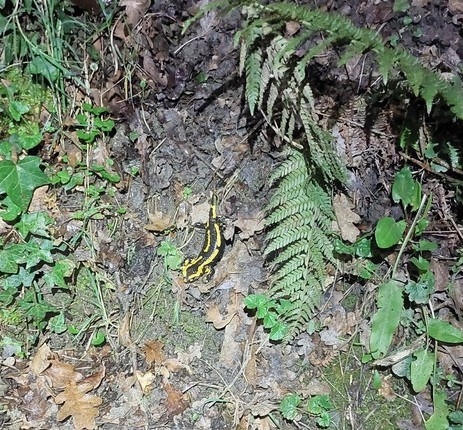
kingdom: Animalia
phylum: Chordata
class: Amphibia
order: Caudata
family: Salamandridae
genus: Salamandra
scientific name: Salamandra salamandra
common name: Fire salamander
